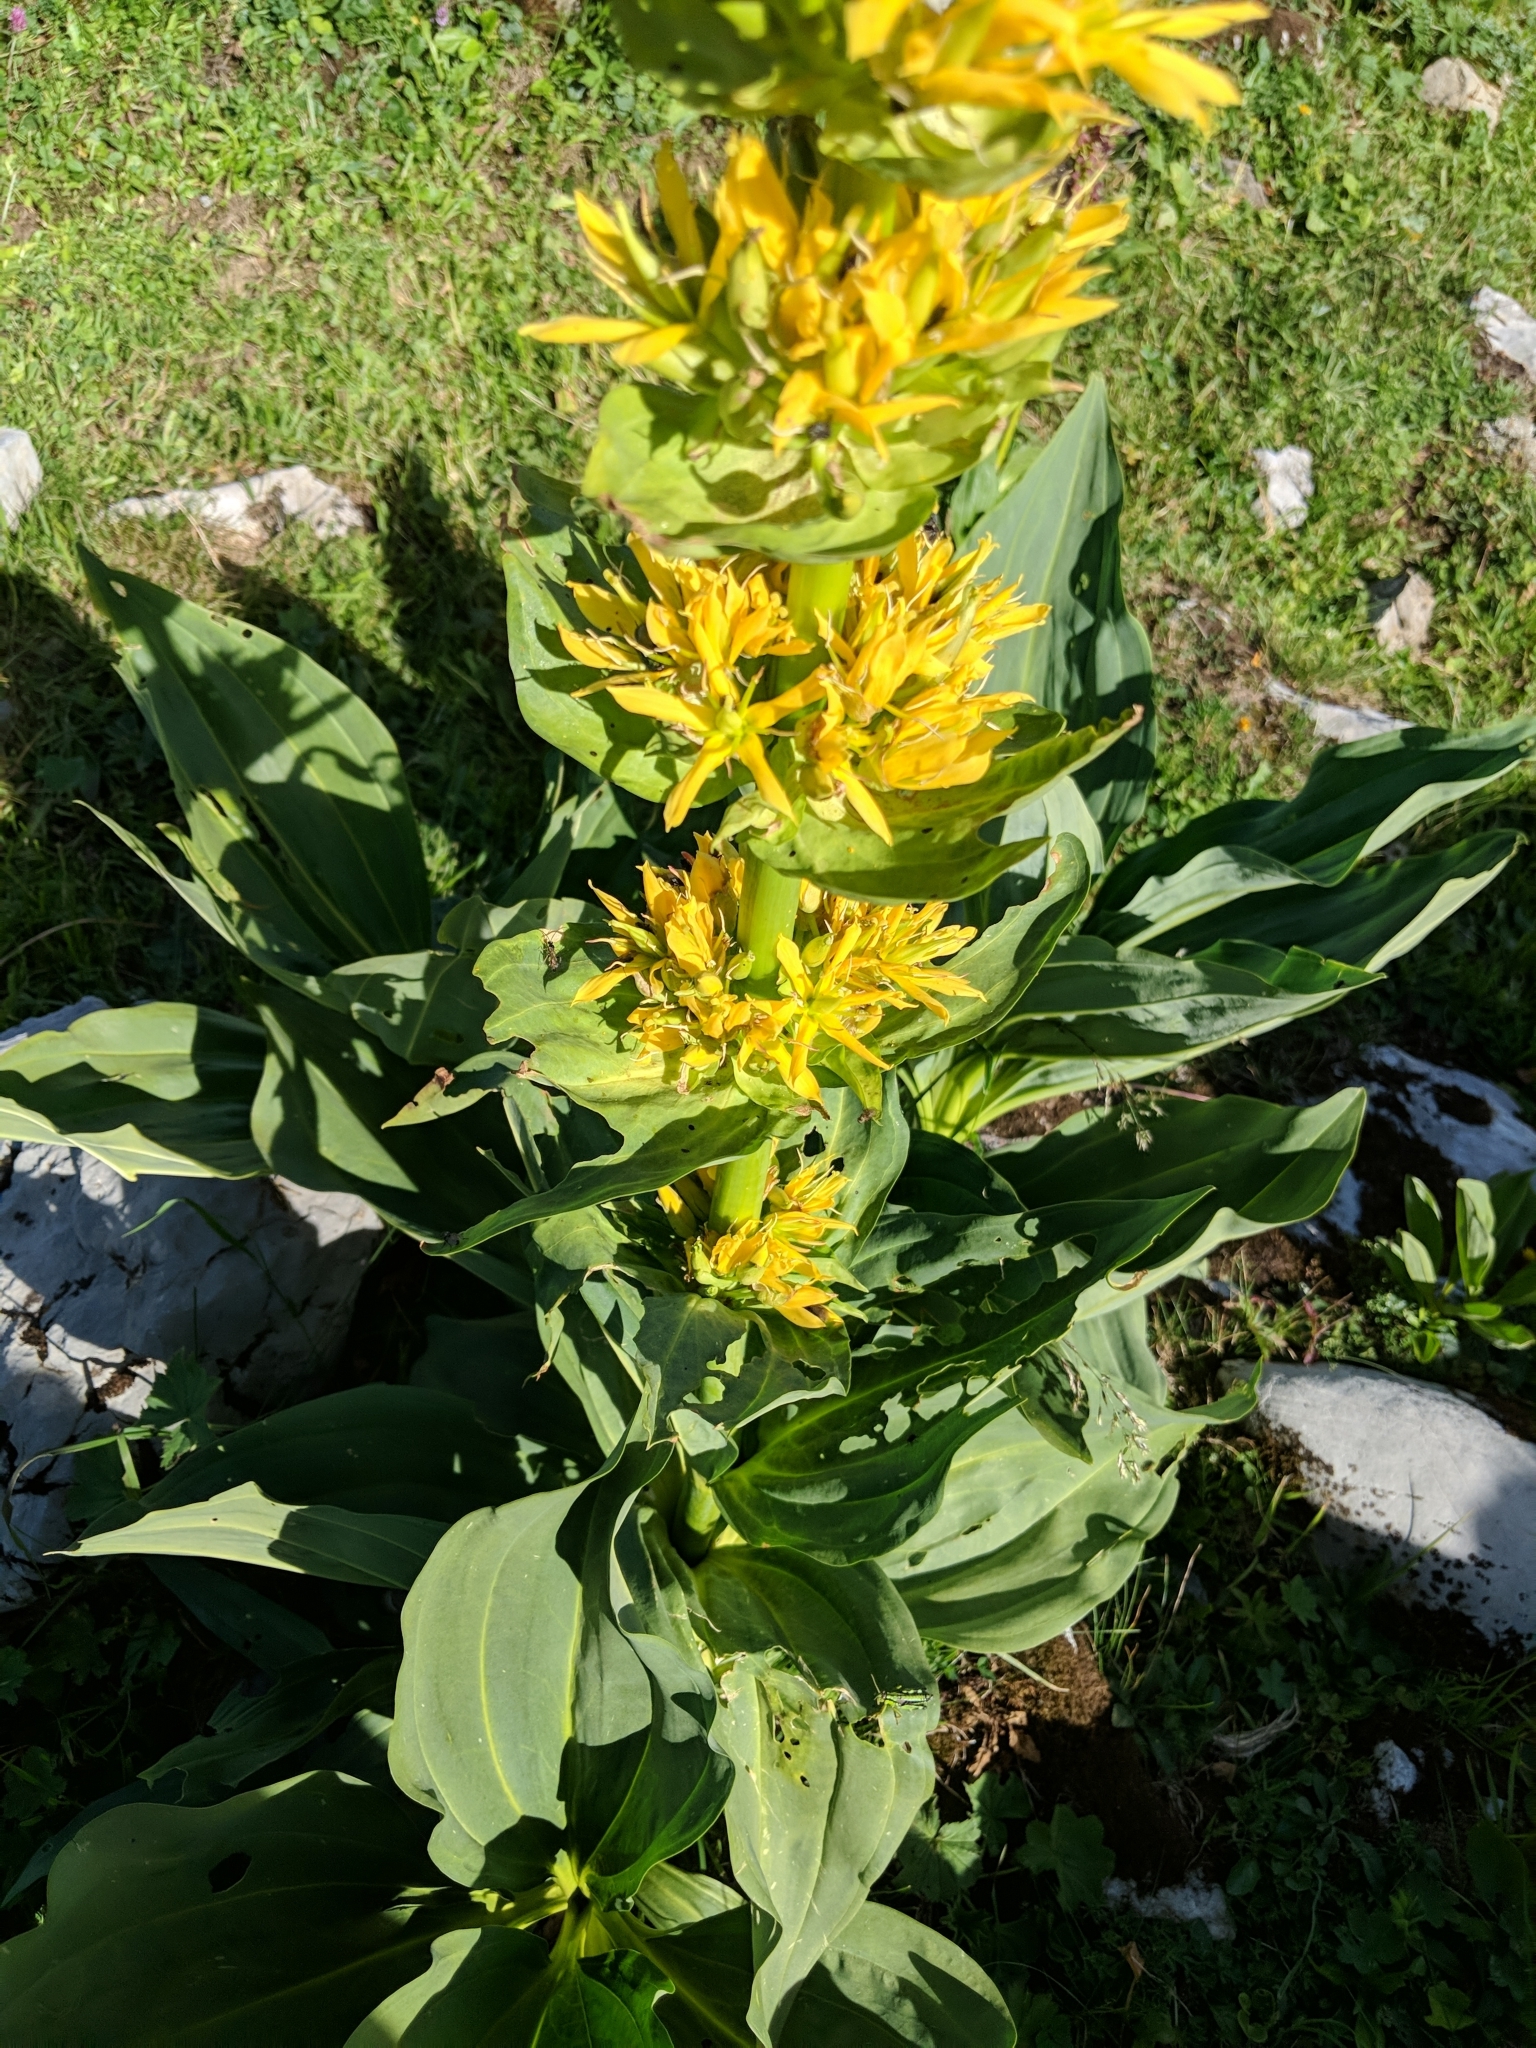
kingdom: Plantae
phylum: Tracheophyta
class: Magnoliopsida
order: Gentianales
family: Gentianaceae
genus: Gentiana
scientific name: Gentiana lutea
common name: Great yellow gentian
